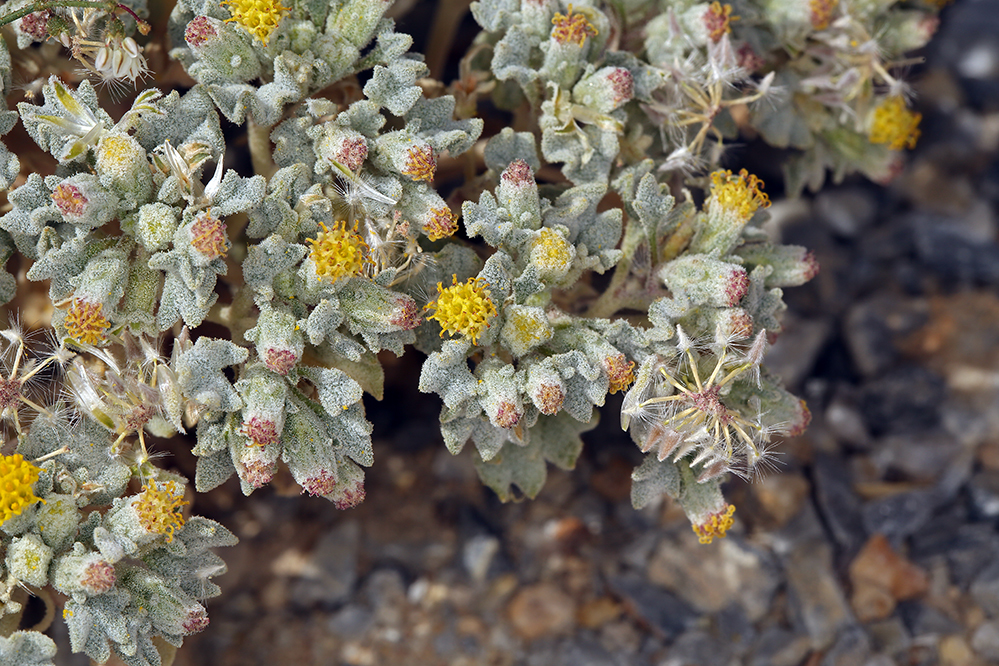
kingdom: Plantae
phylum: Tracheophyta
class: Magnoliopsida
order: Asterales
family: Asteraceae
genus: Psathyrotes
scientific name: Psathyrotes annua
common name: Mealy rosettes
